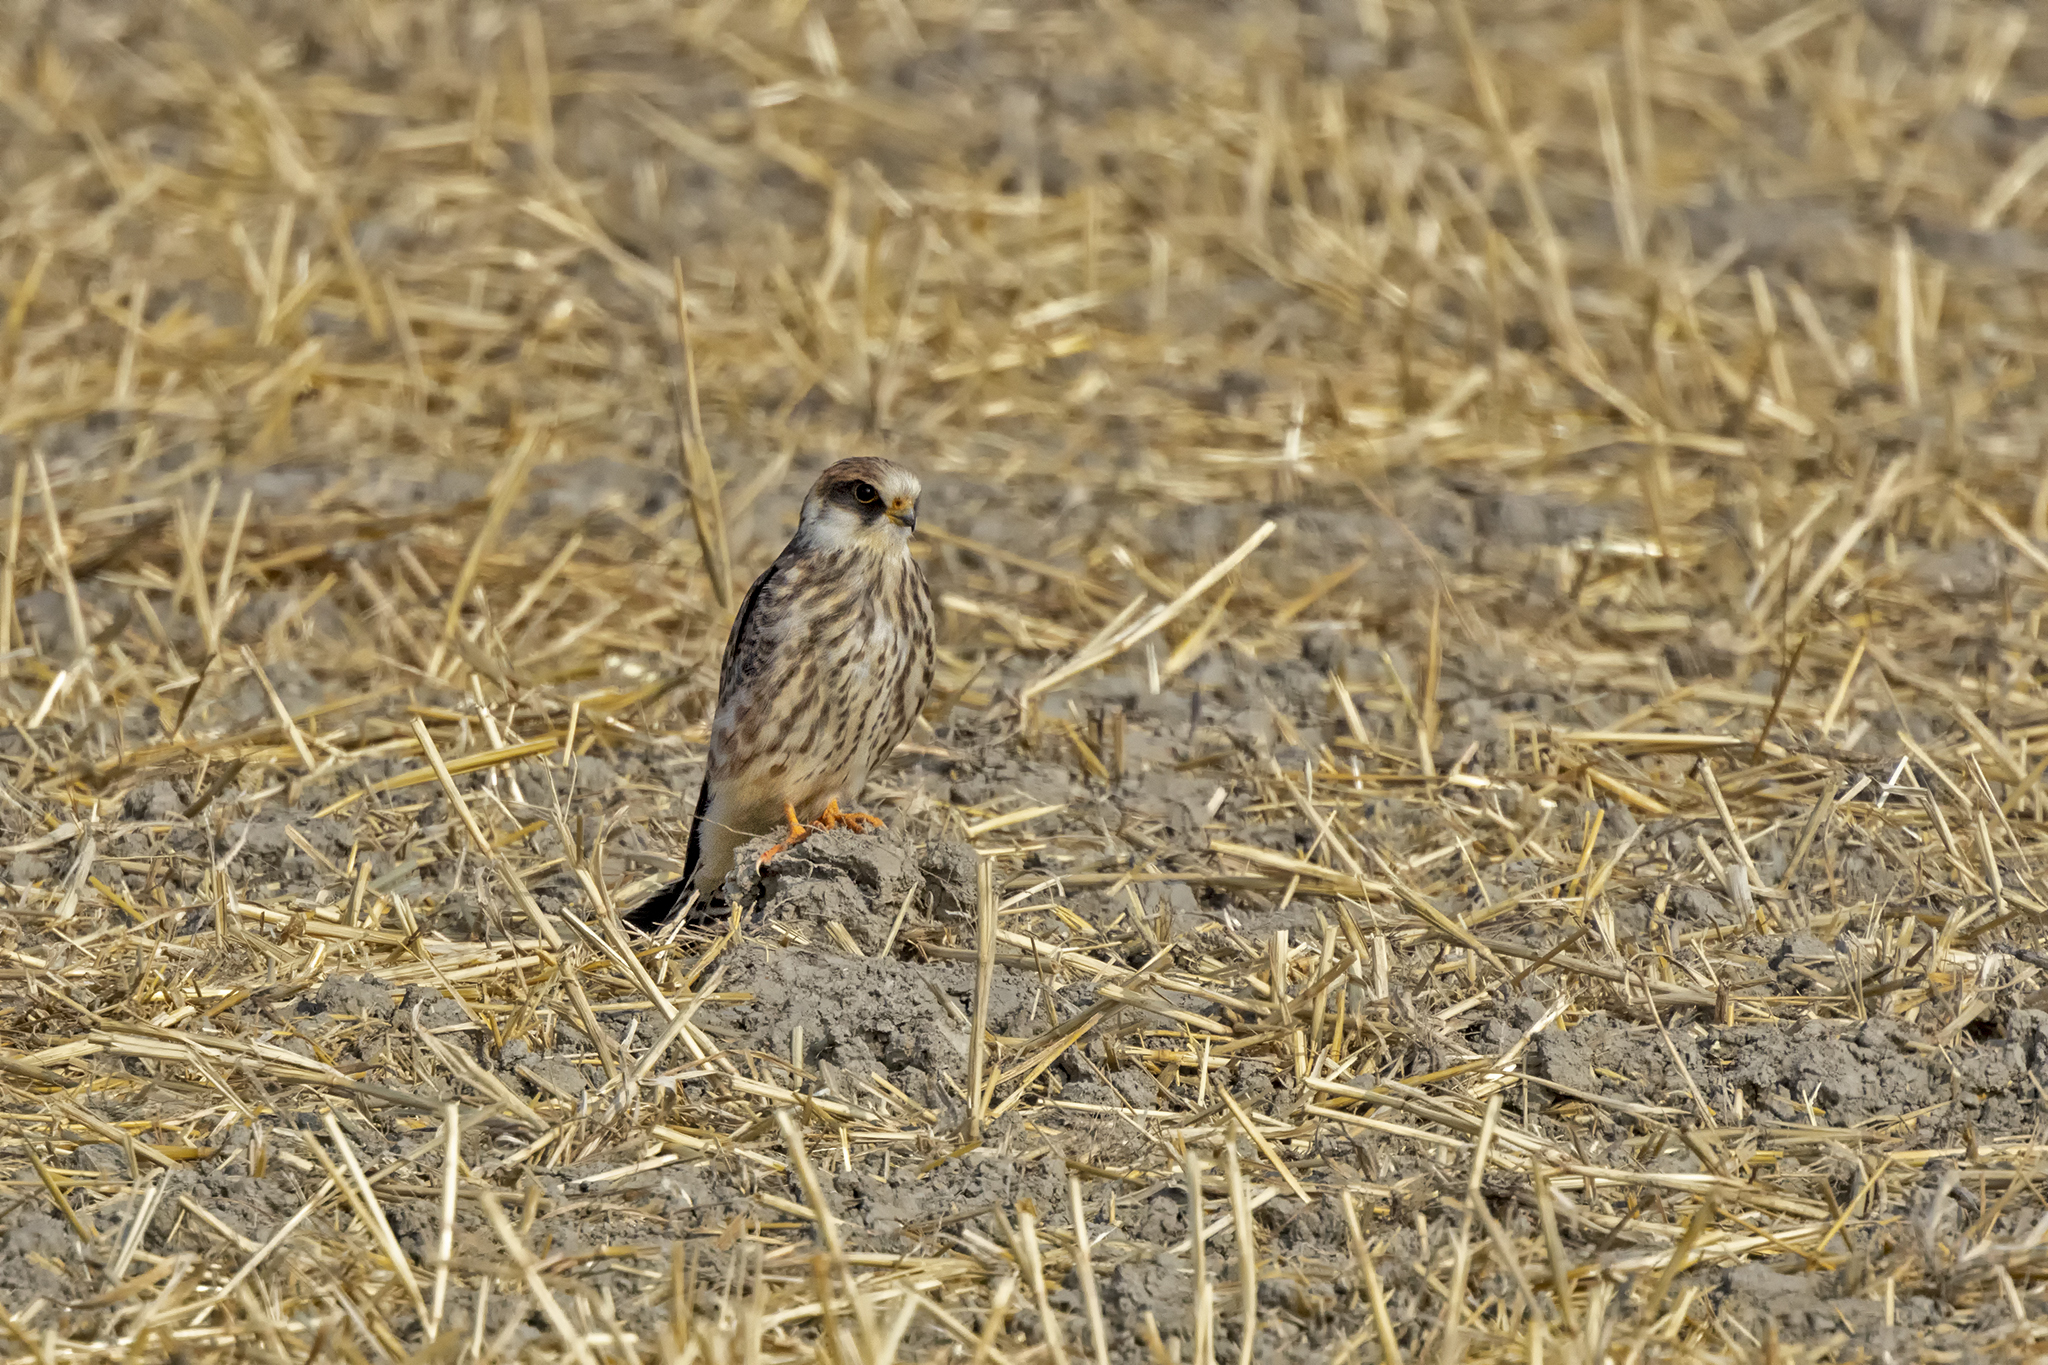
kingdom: Animalia
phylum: Chordata
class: Aves
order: Falconiformes
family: Falconidae
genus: Falco
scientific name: Falco vespertinus
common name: Red-footed falcon
